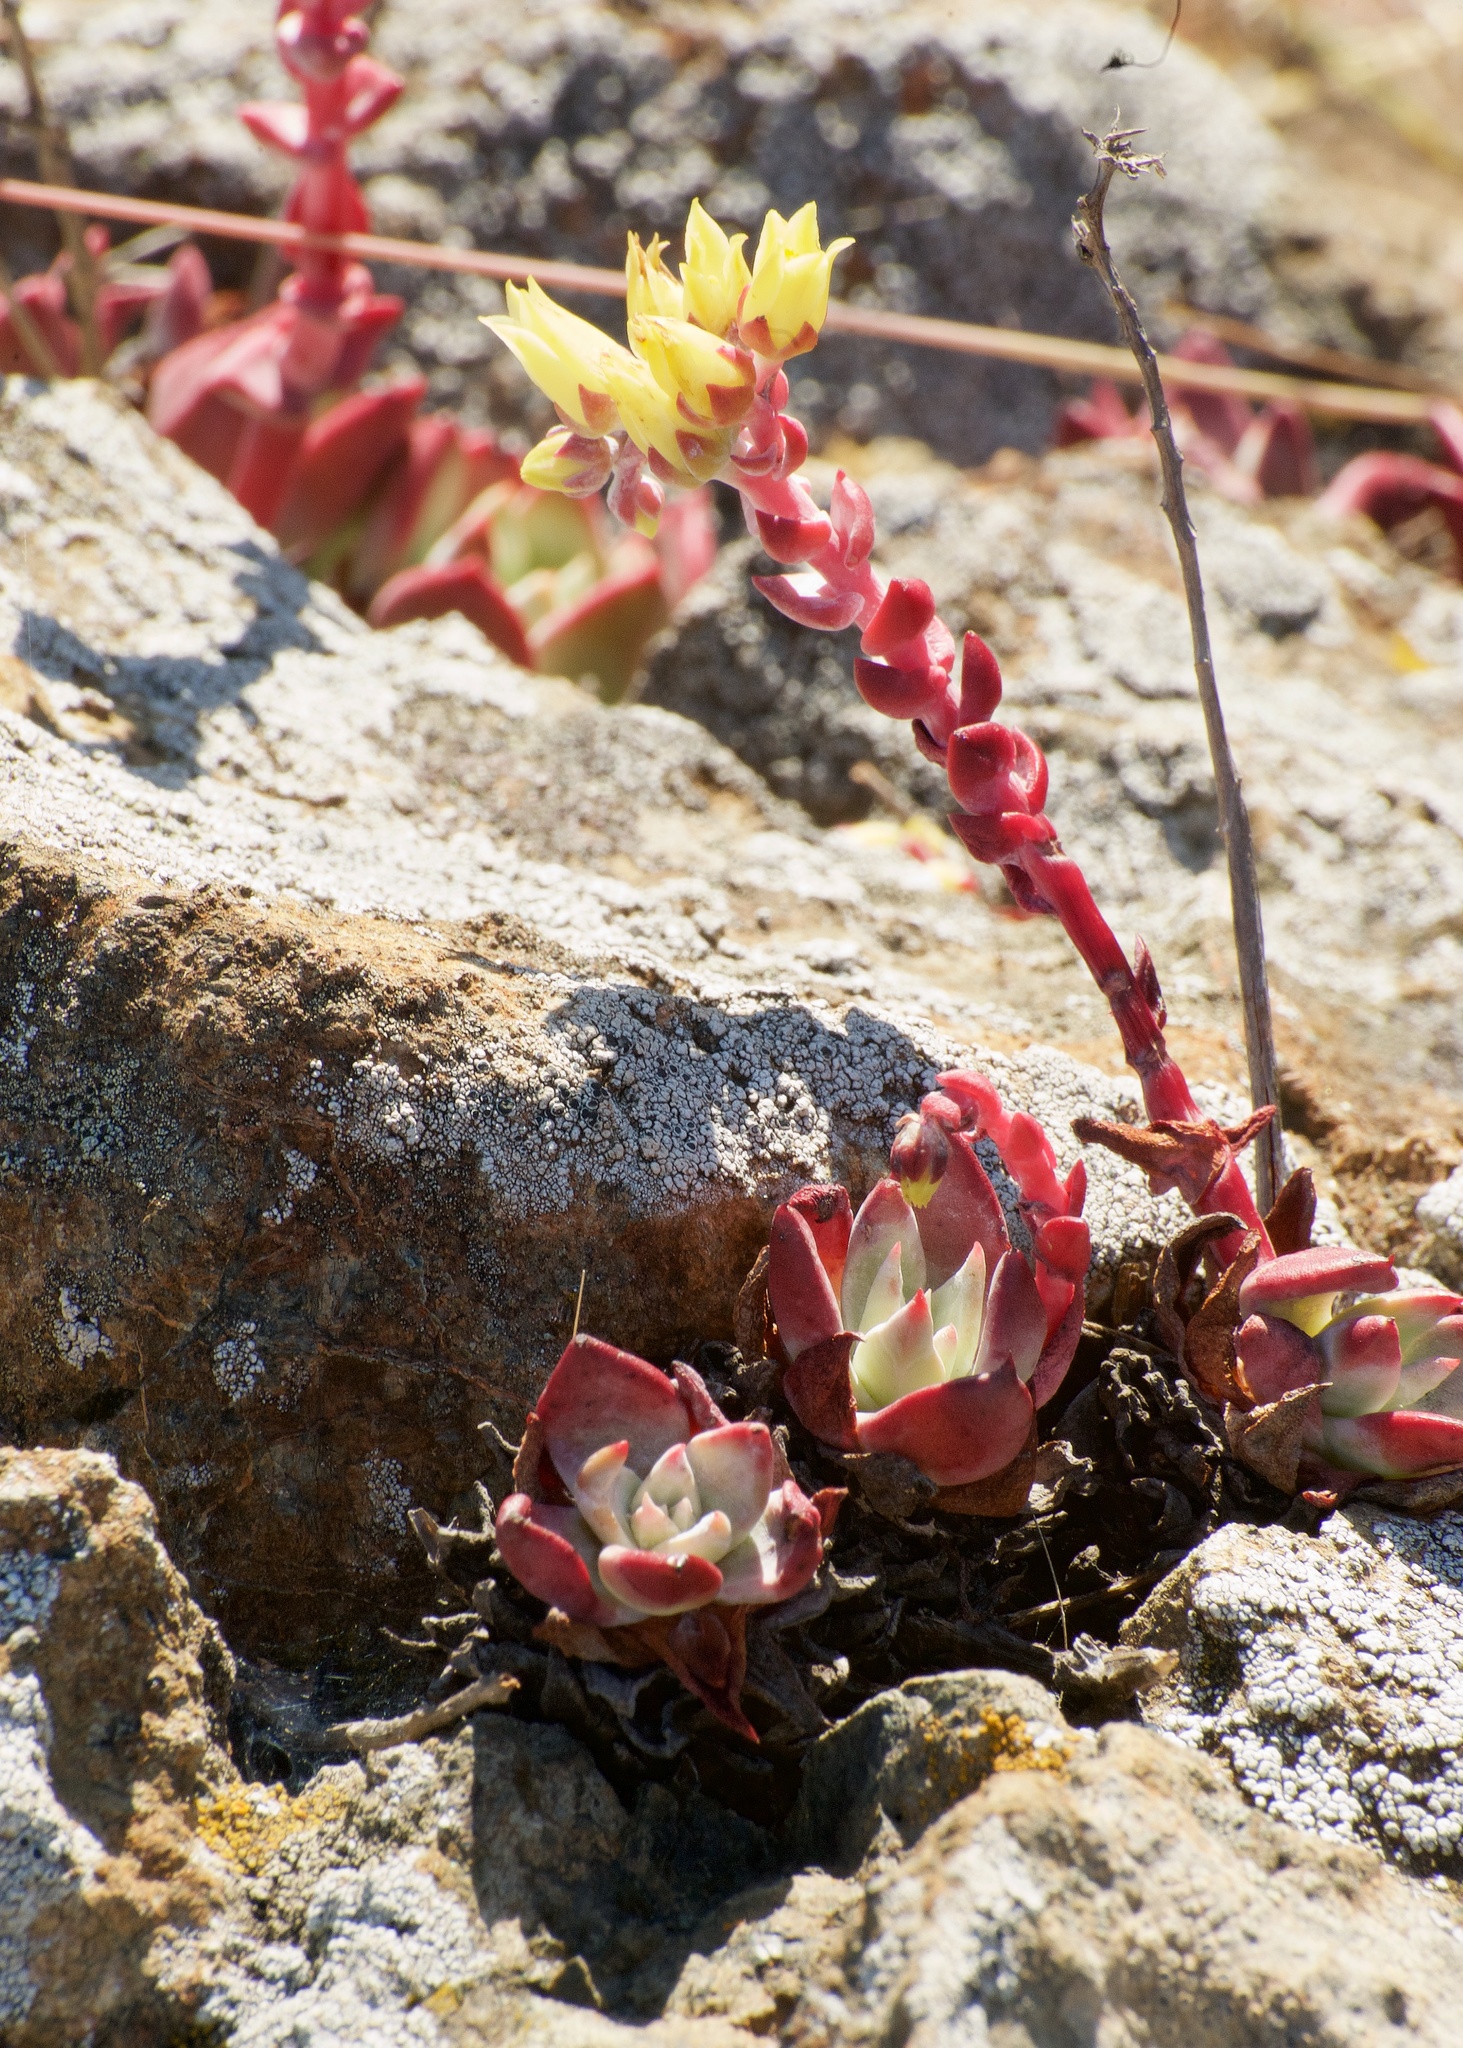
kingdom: Plantae
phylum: Tracheophyta
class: Magnoliopsida
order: Saxifragales
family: Crassulaceae
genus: Dudleya
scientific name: Dudleya farinosa
